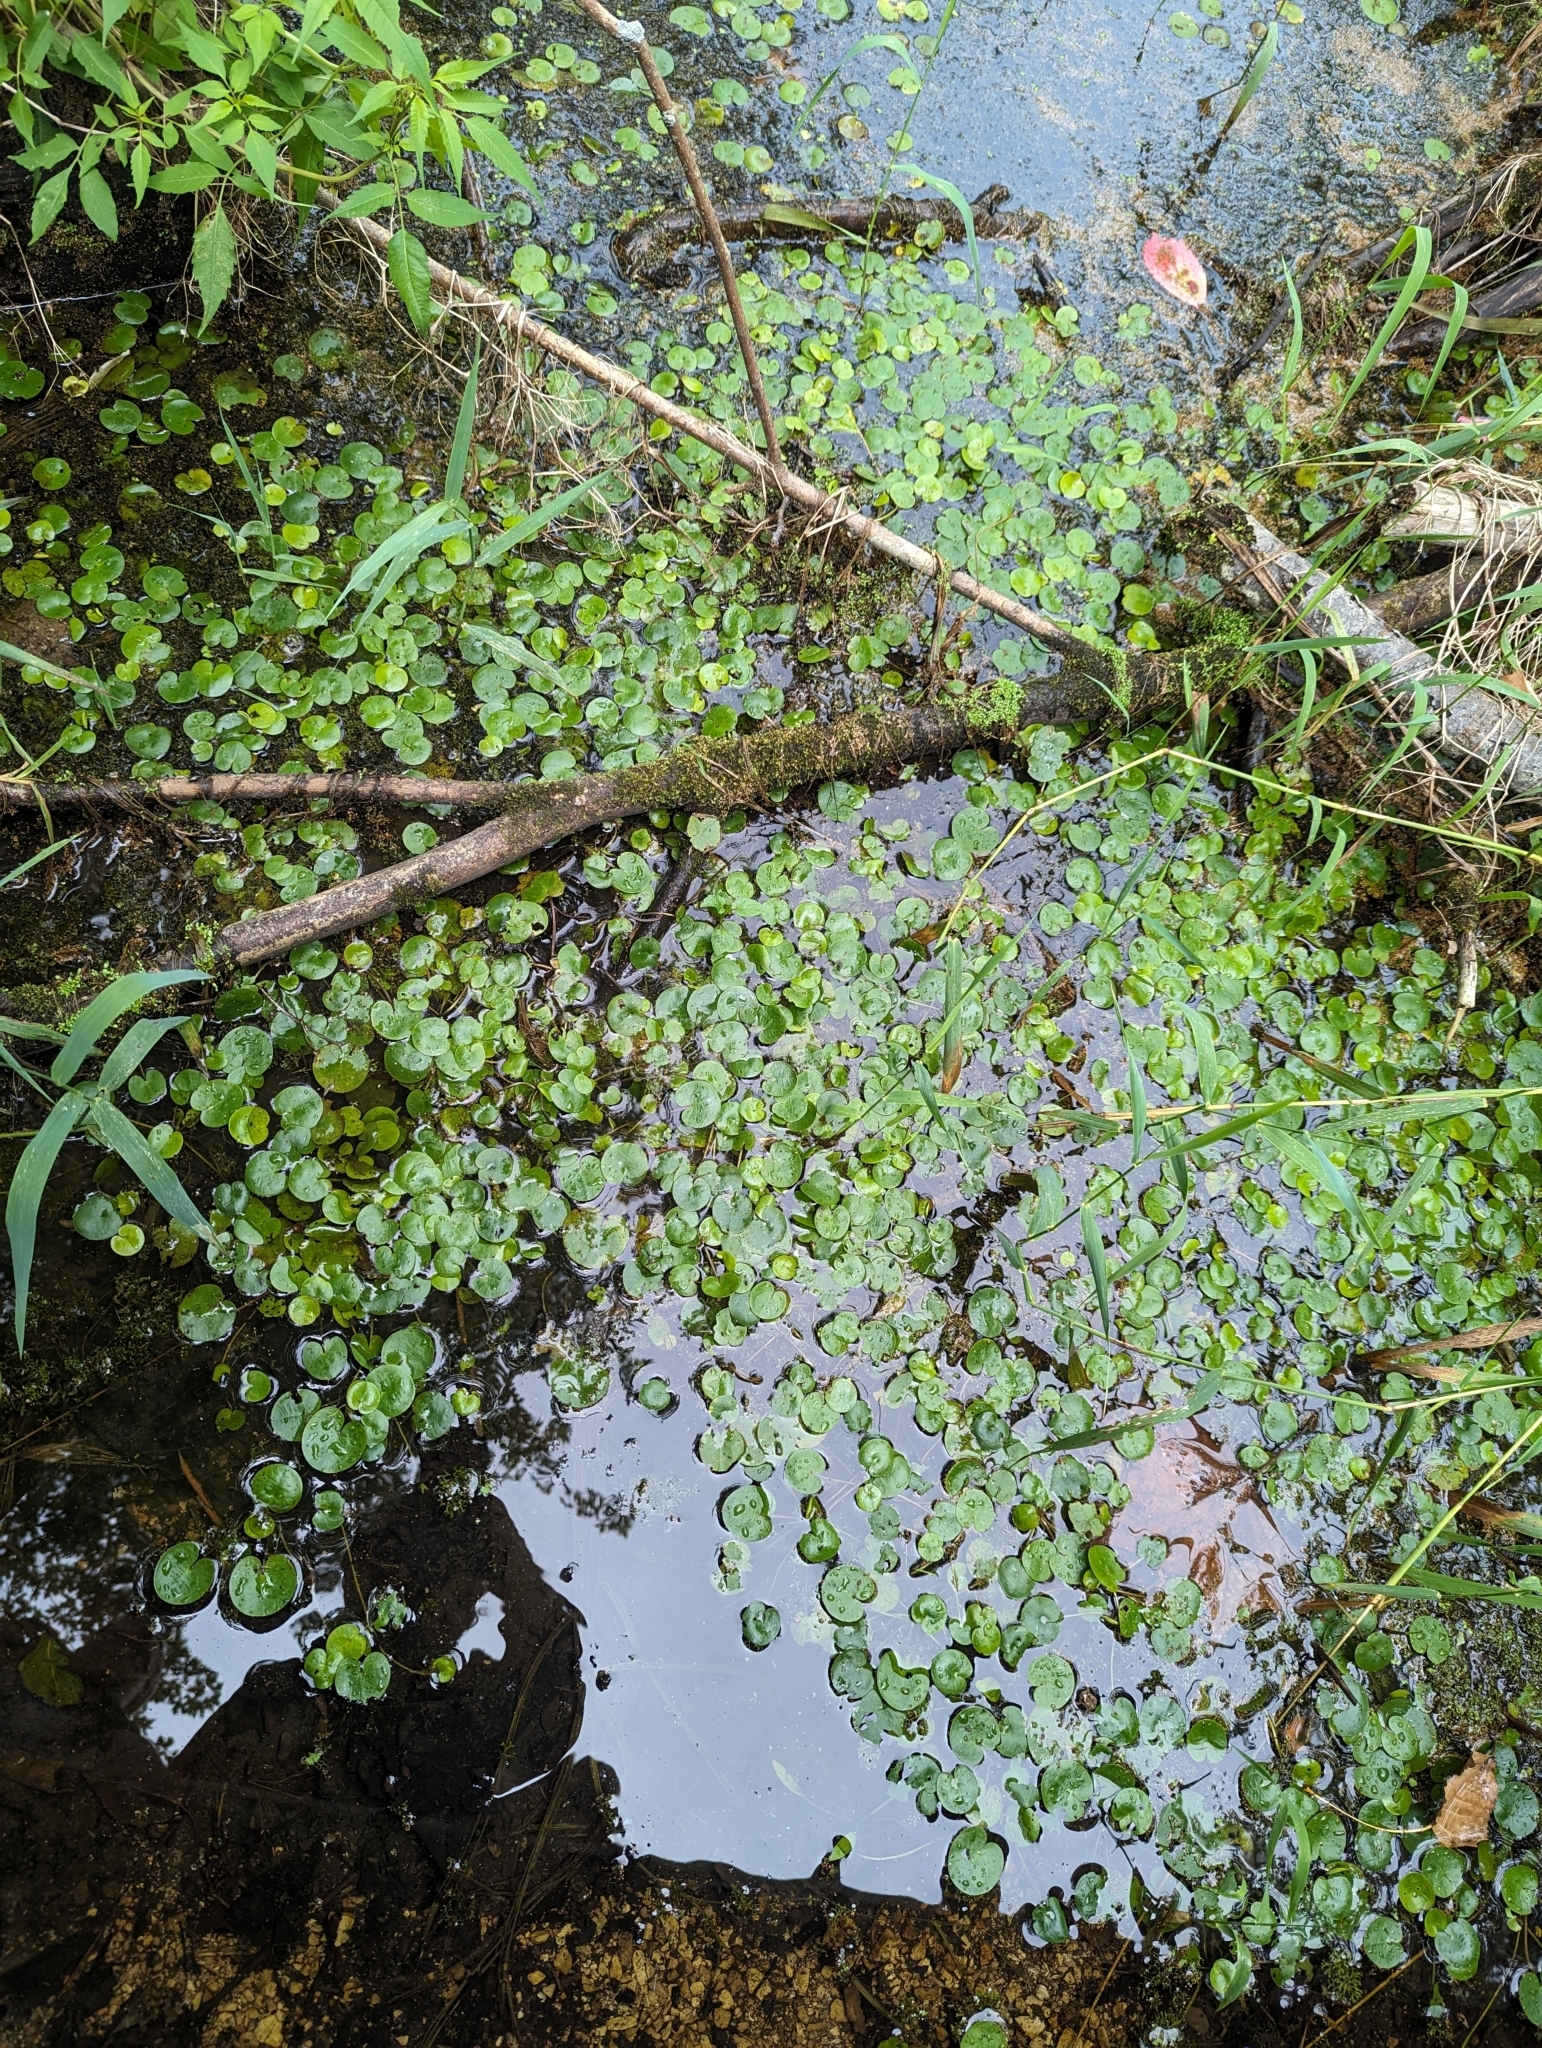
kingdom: Plantae
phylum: Tracheophyta
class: Liliopsida
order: Alismatales
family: Hydrocharitaceae
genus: Hydrocharis
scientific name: Hydrocharis morsus-ranae
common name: Frogbit
